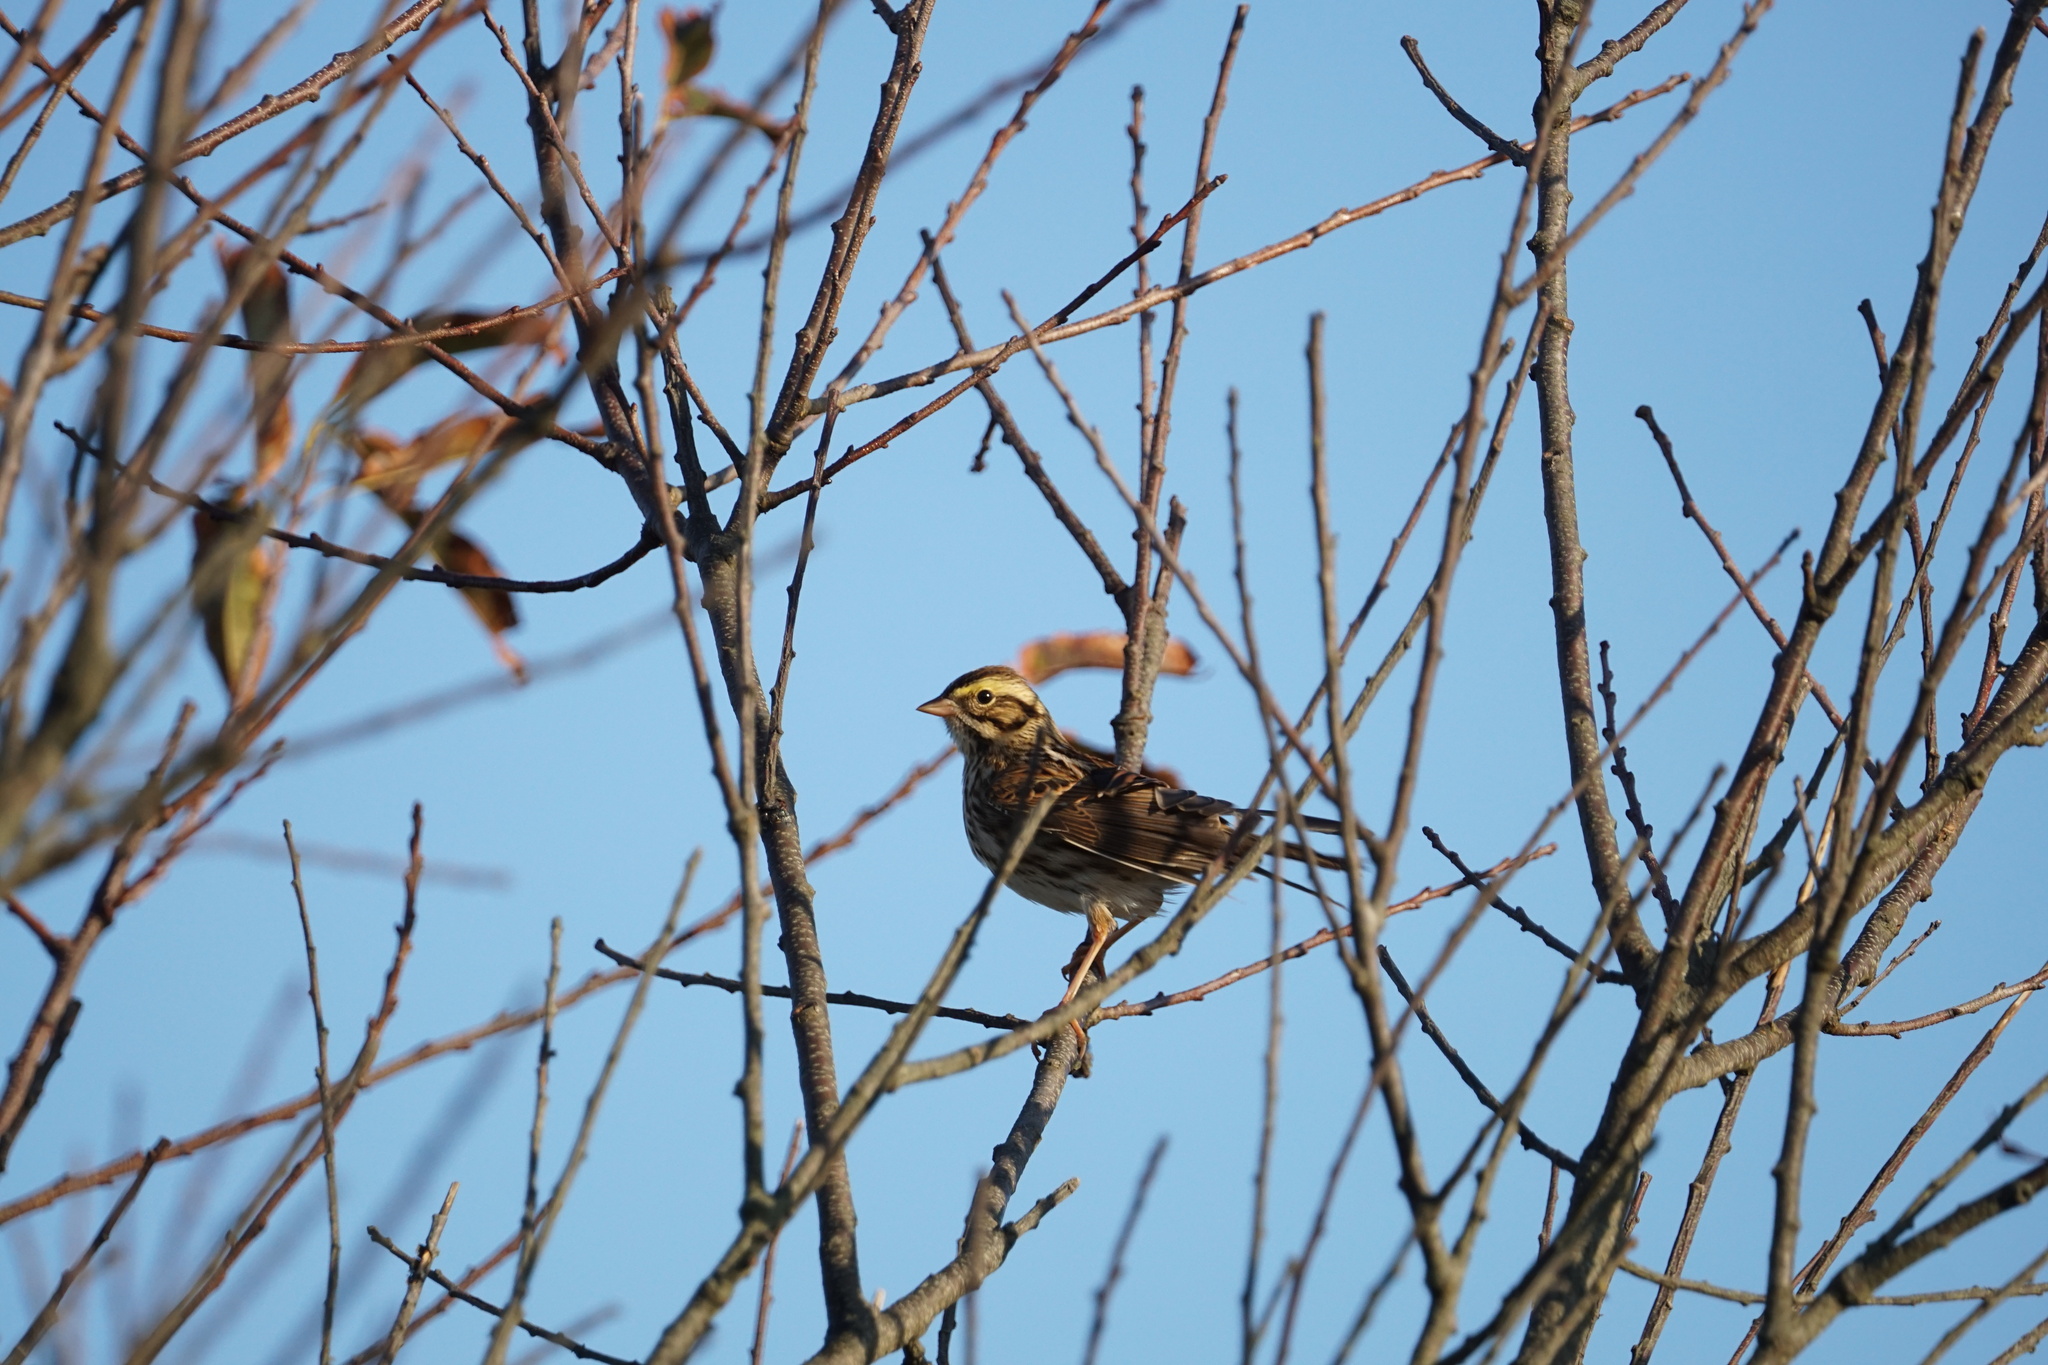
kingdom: Animalia
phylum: Chordata
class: Aves
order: Passeriformes
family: Passerellidae
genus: Passerculus
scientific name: Passerculus sandwichensis
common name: Savannah sparrow
